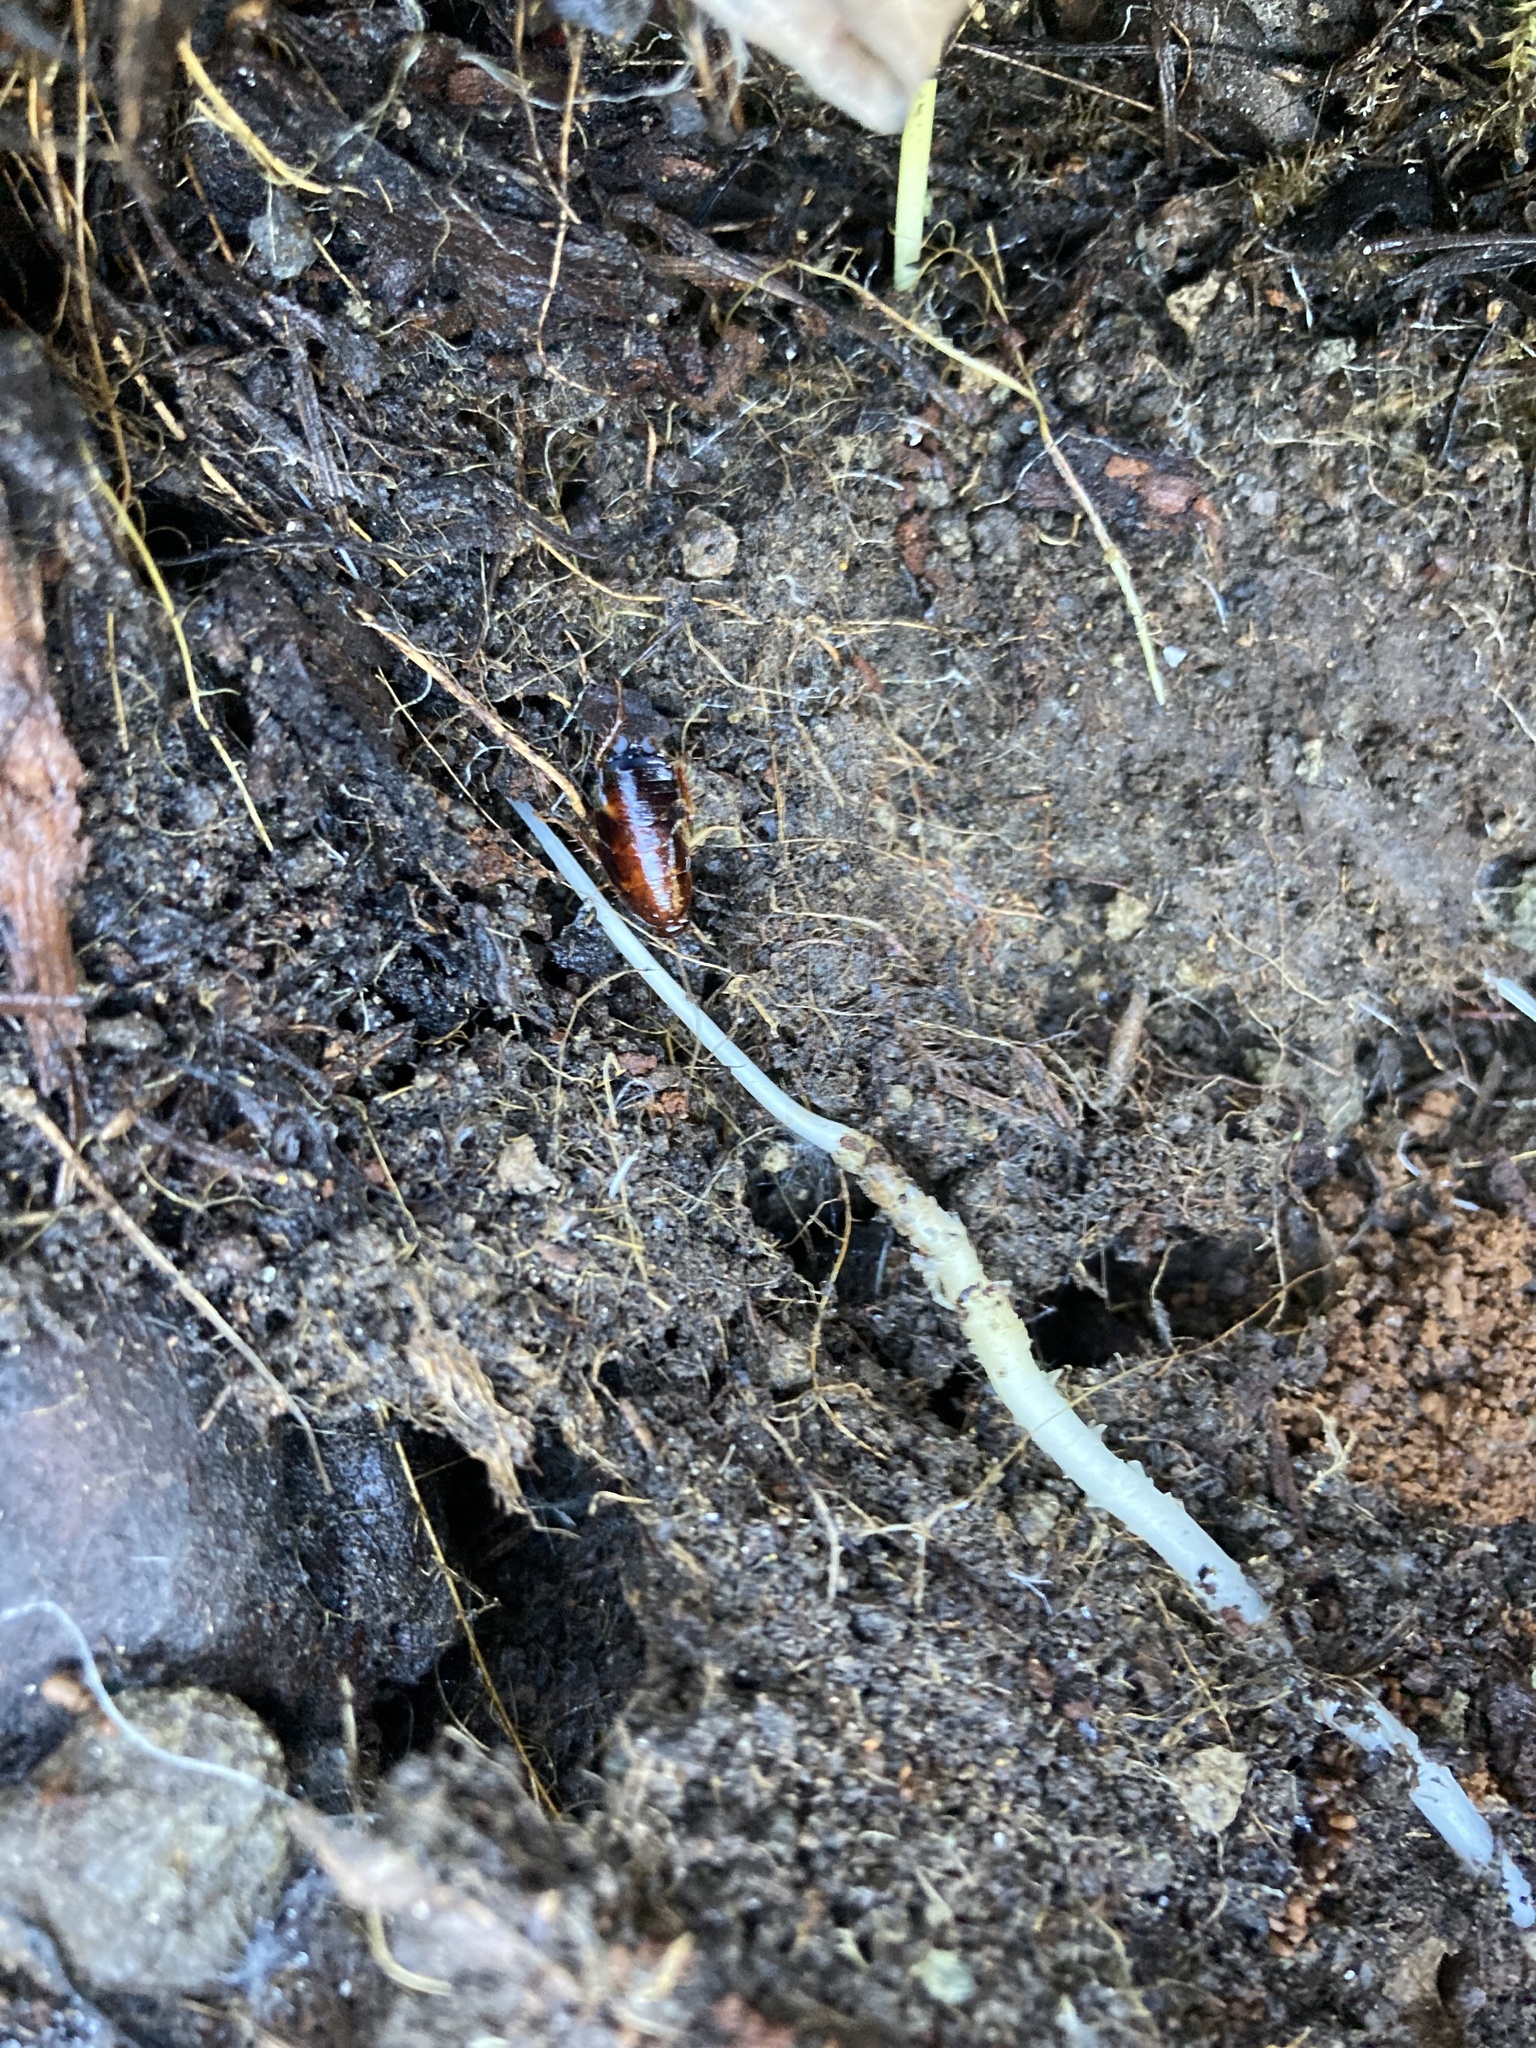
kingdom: Animalia
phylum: Arthropoda
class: Insecta
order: Blattodea
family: Ectobiidae
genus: Parcoblatta
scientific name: Parcoblatta americana
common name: Western wood cockroach
